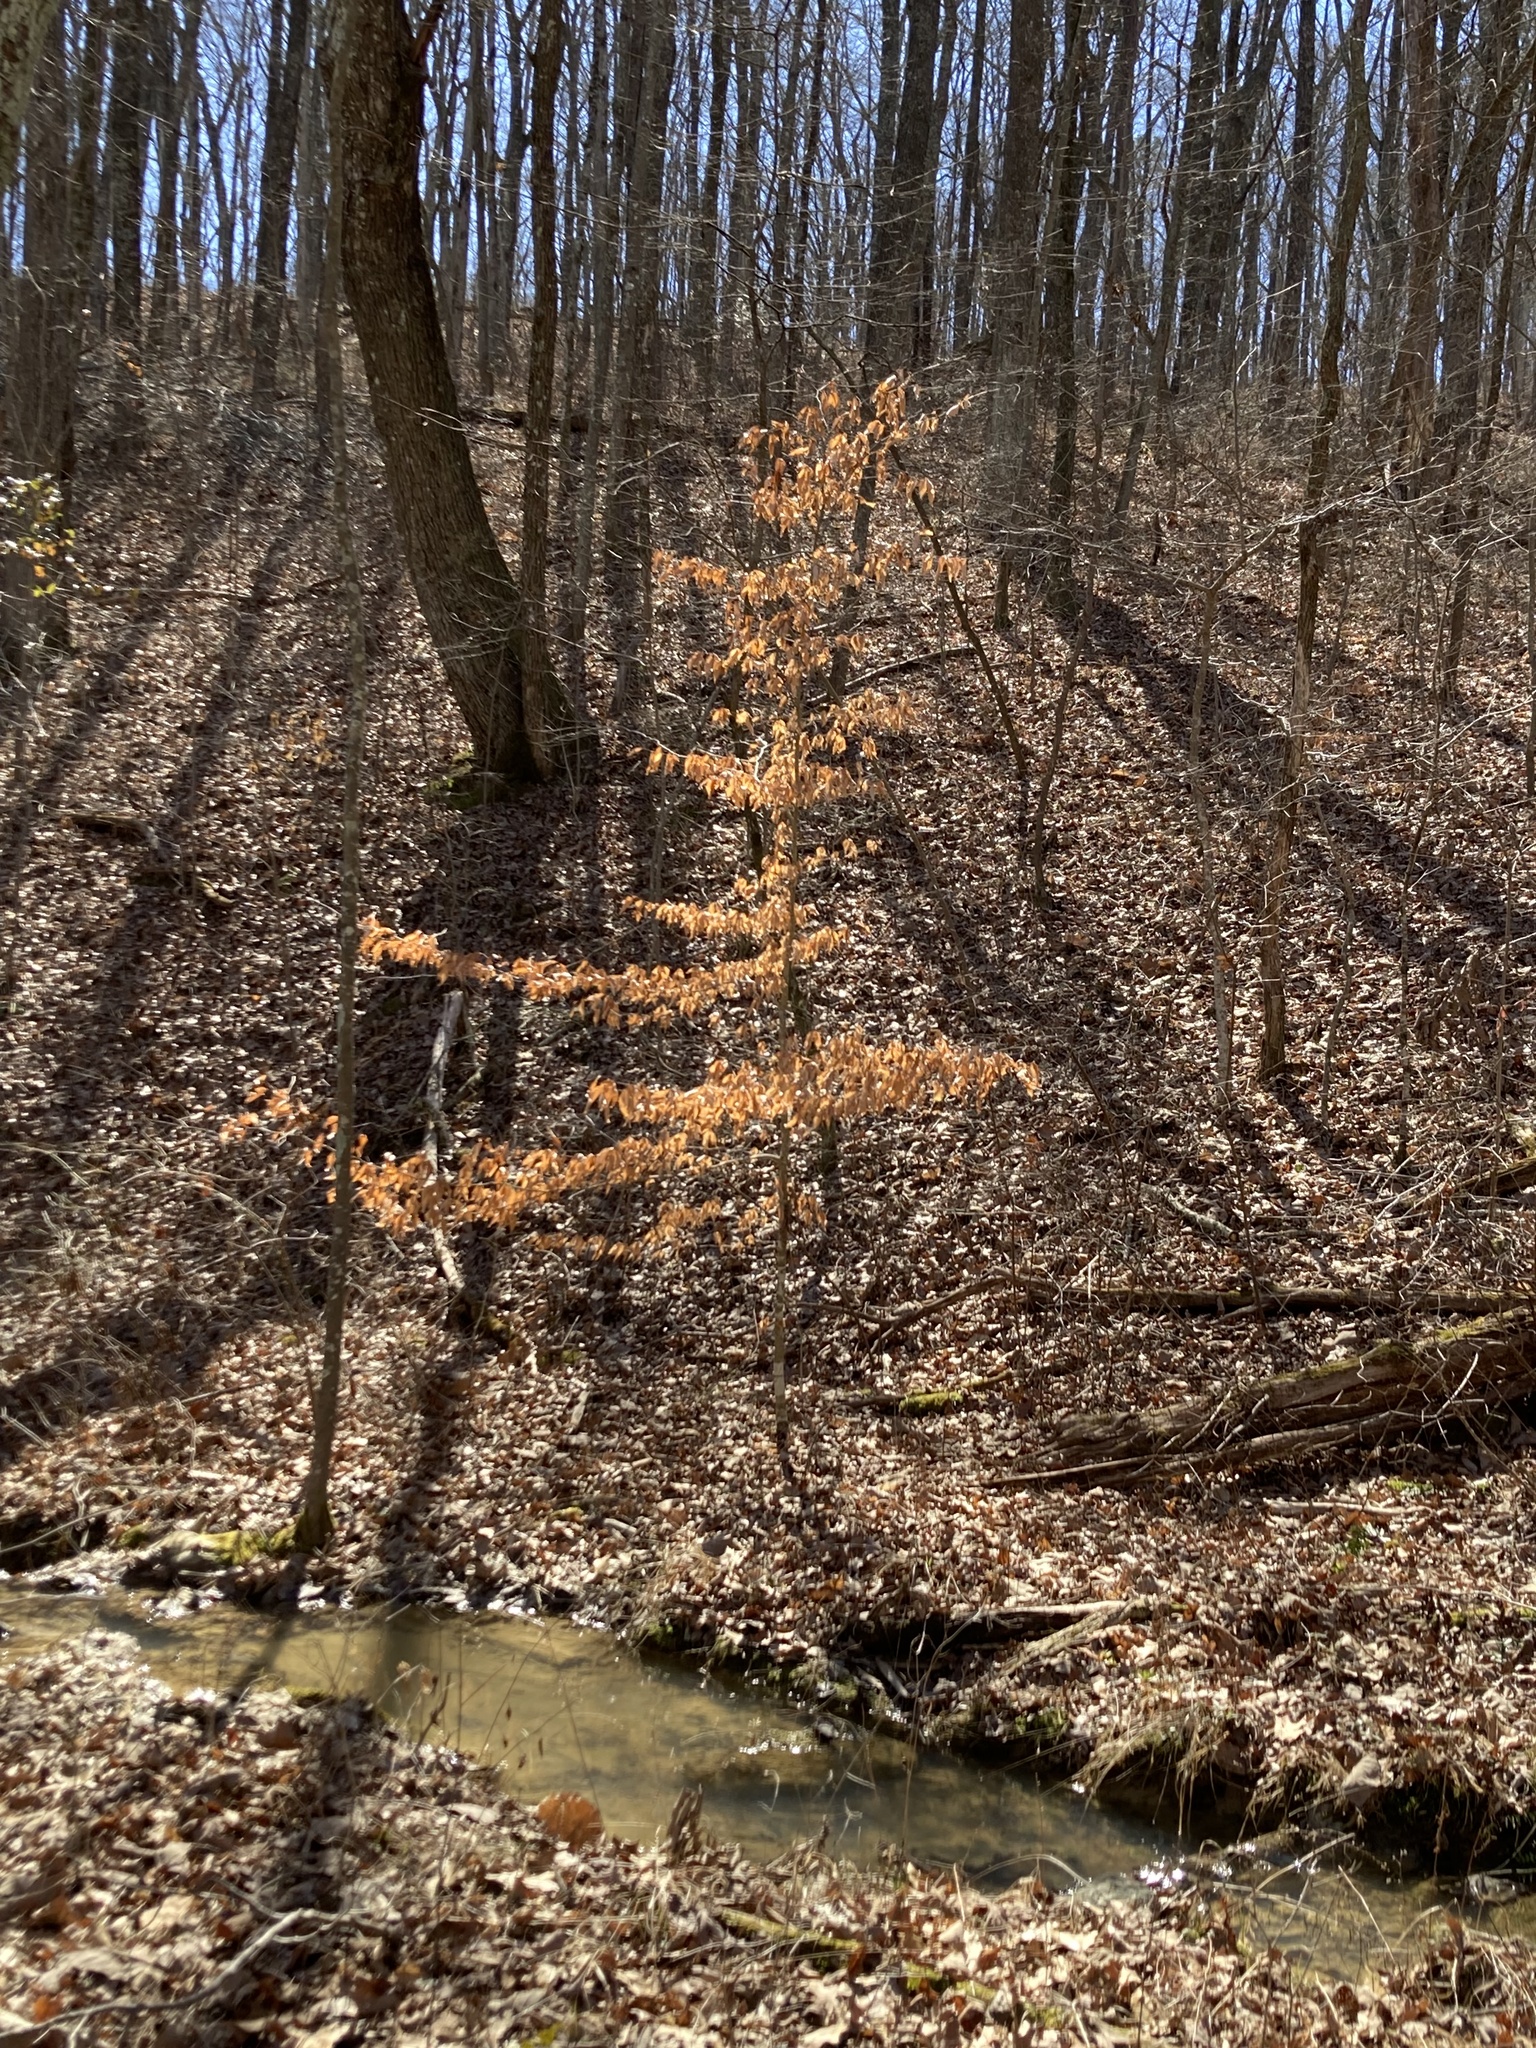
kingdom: Plantae
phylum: Tracheophyta
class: Magnoliopsida
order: Fagales
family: Fagaceae
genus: Fagus
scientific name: Fagus grandifolia
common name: American beech
